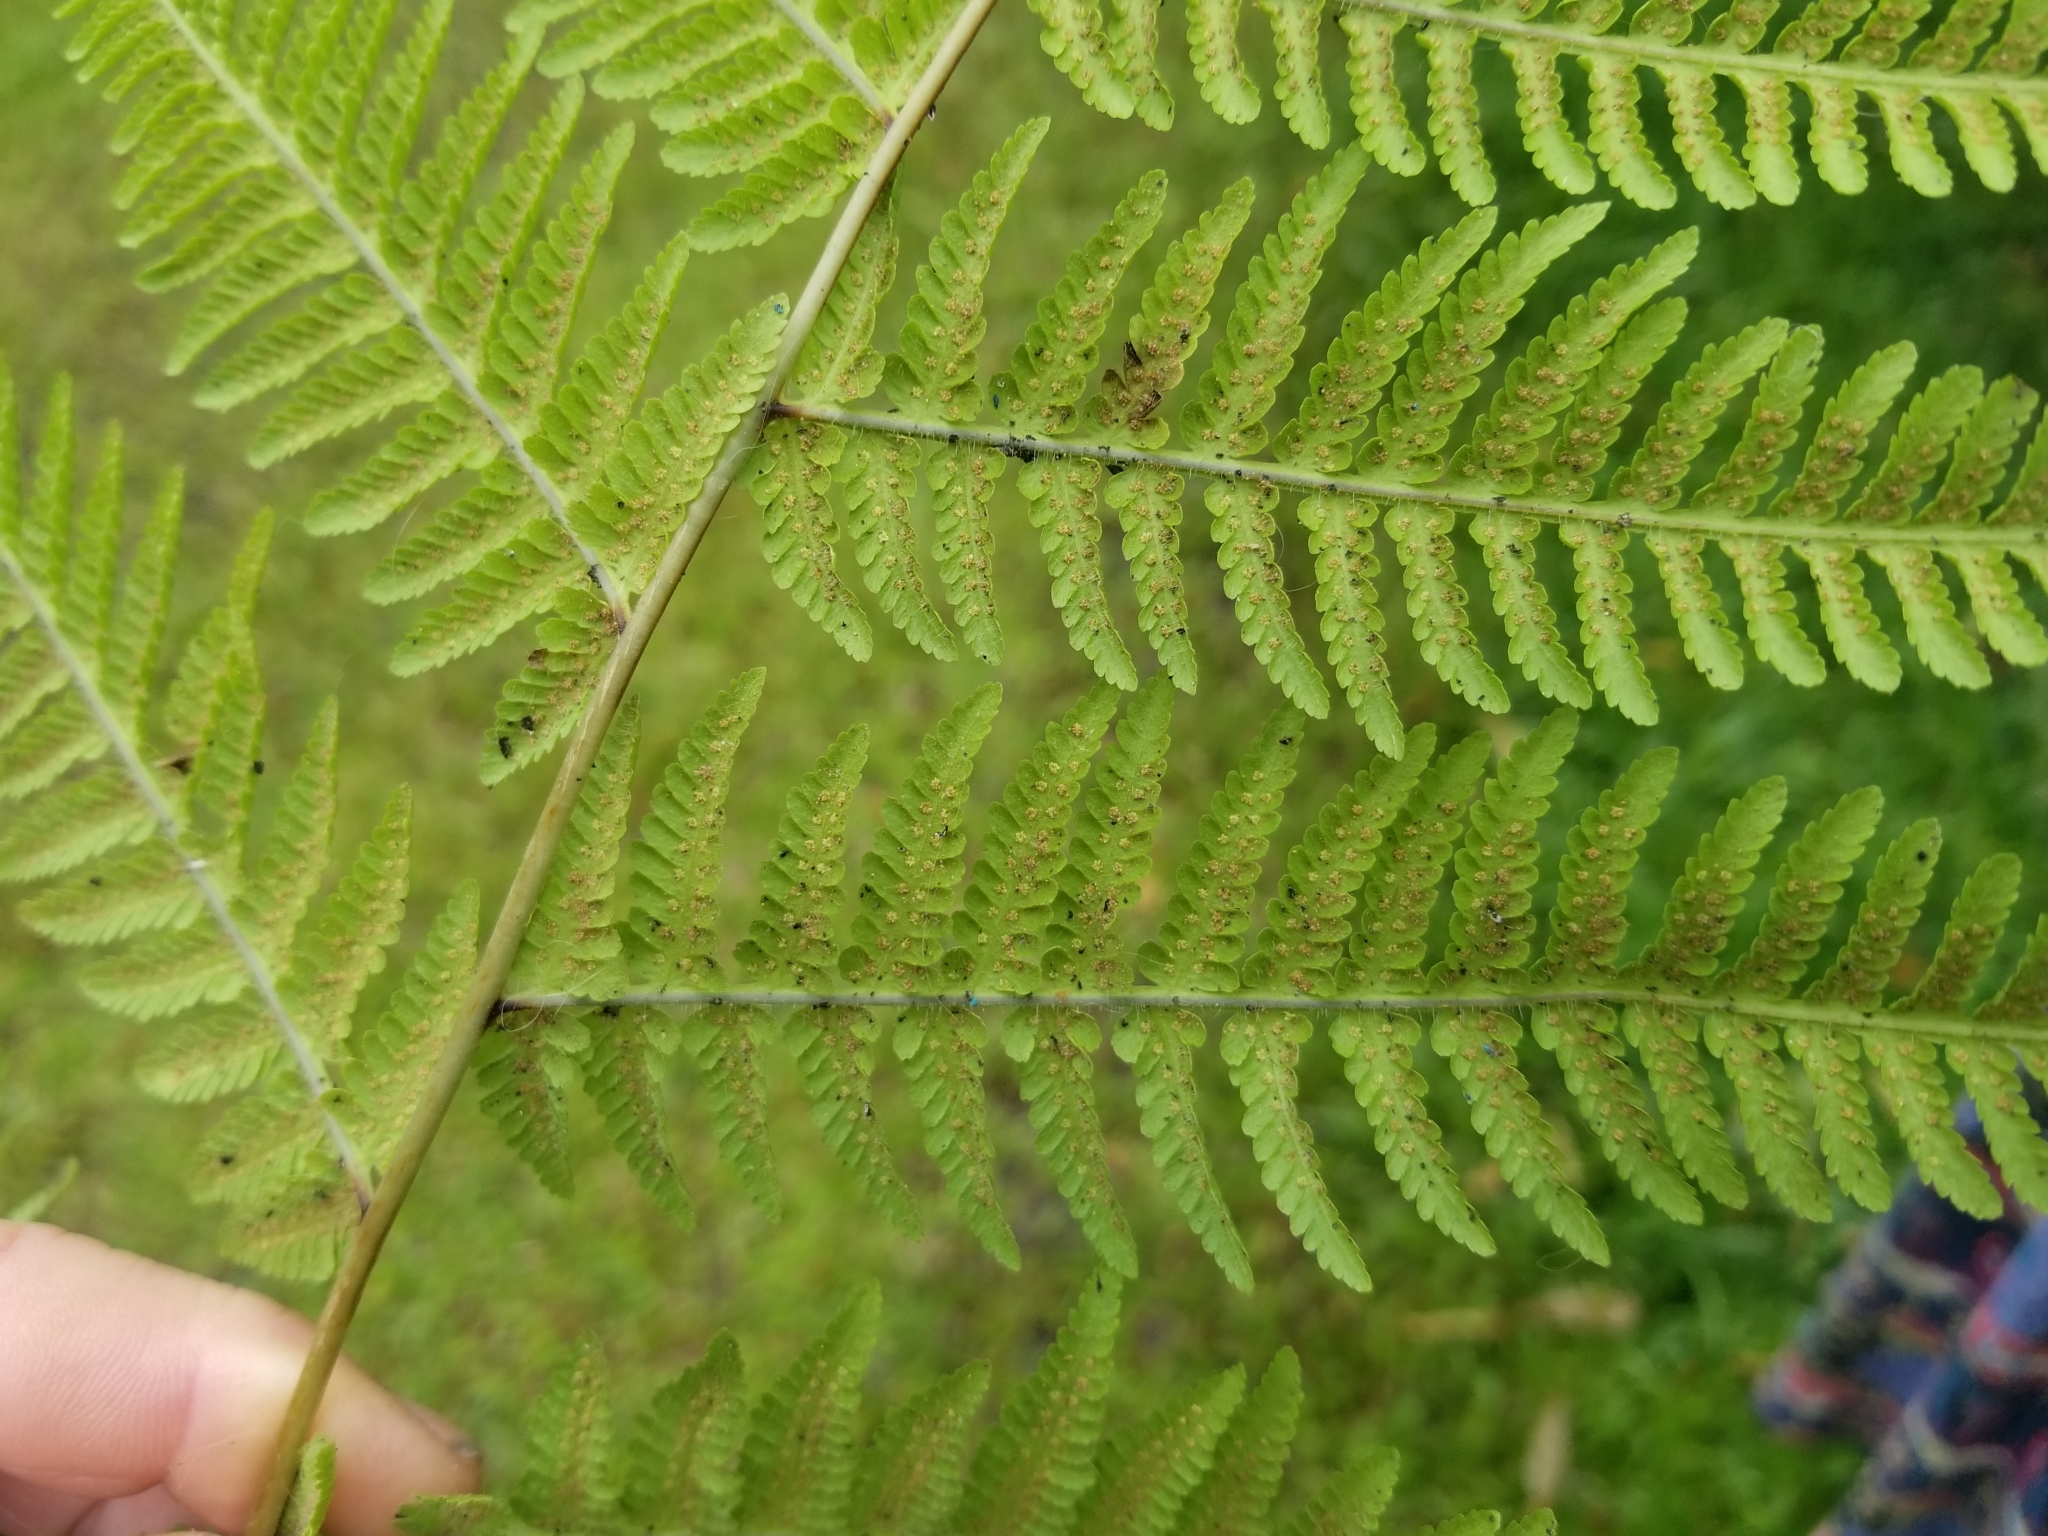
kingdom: Plantae
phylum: Tracheophyta
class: Polypodiopsida
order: Polypodiales
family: Thelypteridaceae
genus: Macrothelypteris
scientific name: Macrothelypteris torresiana
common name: Swordfern
